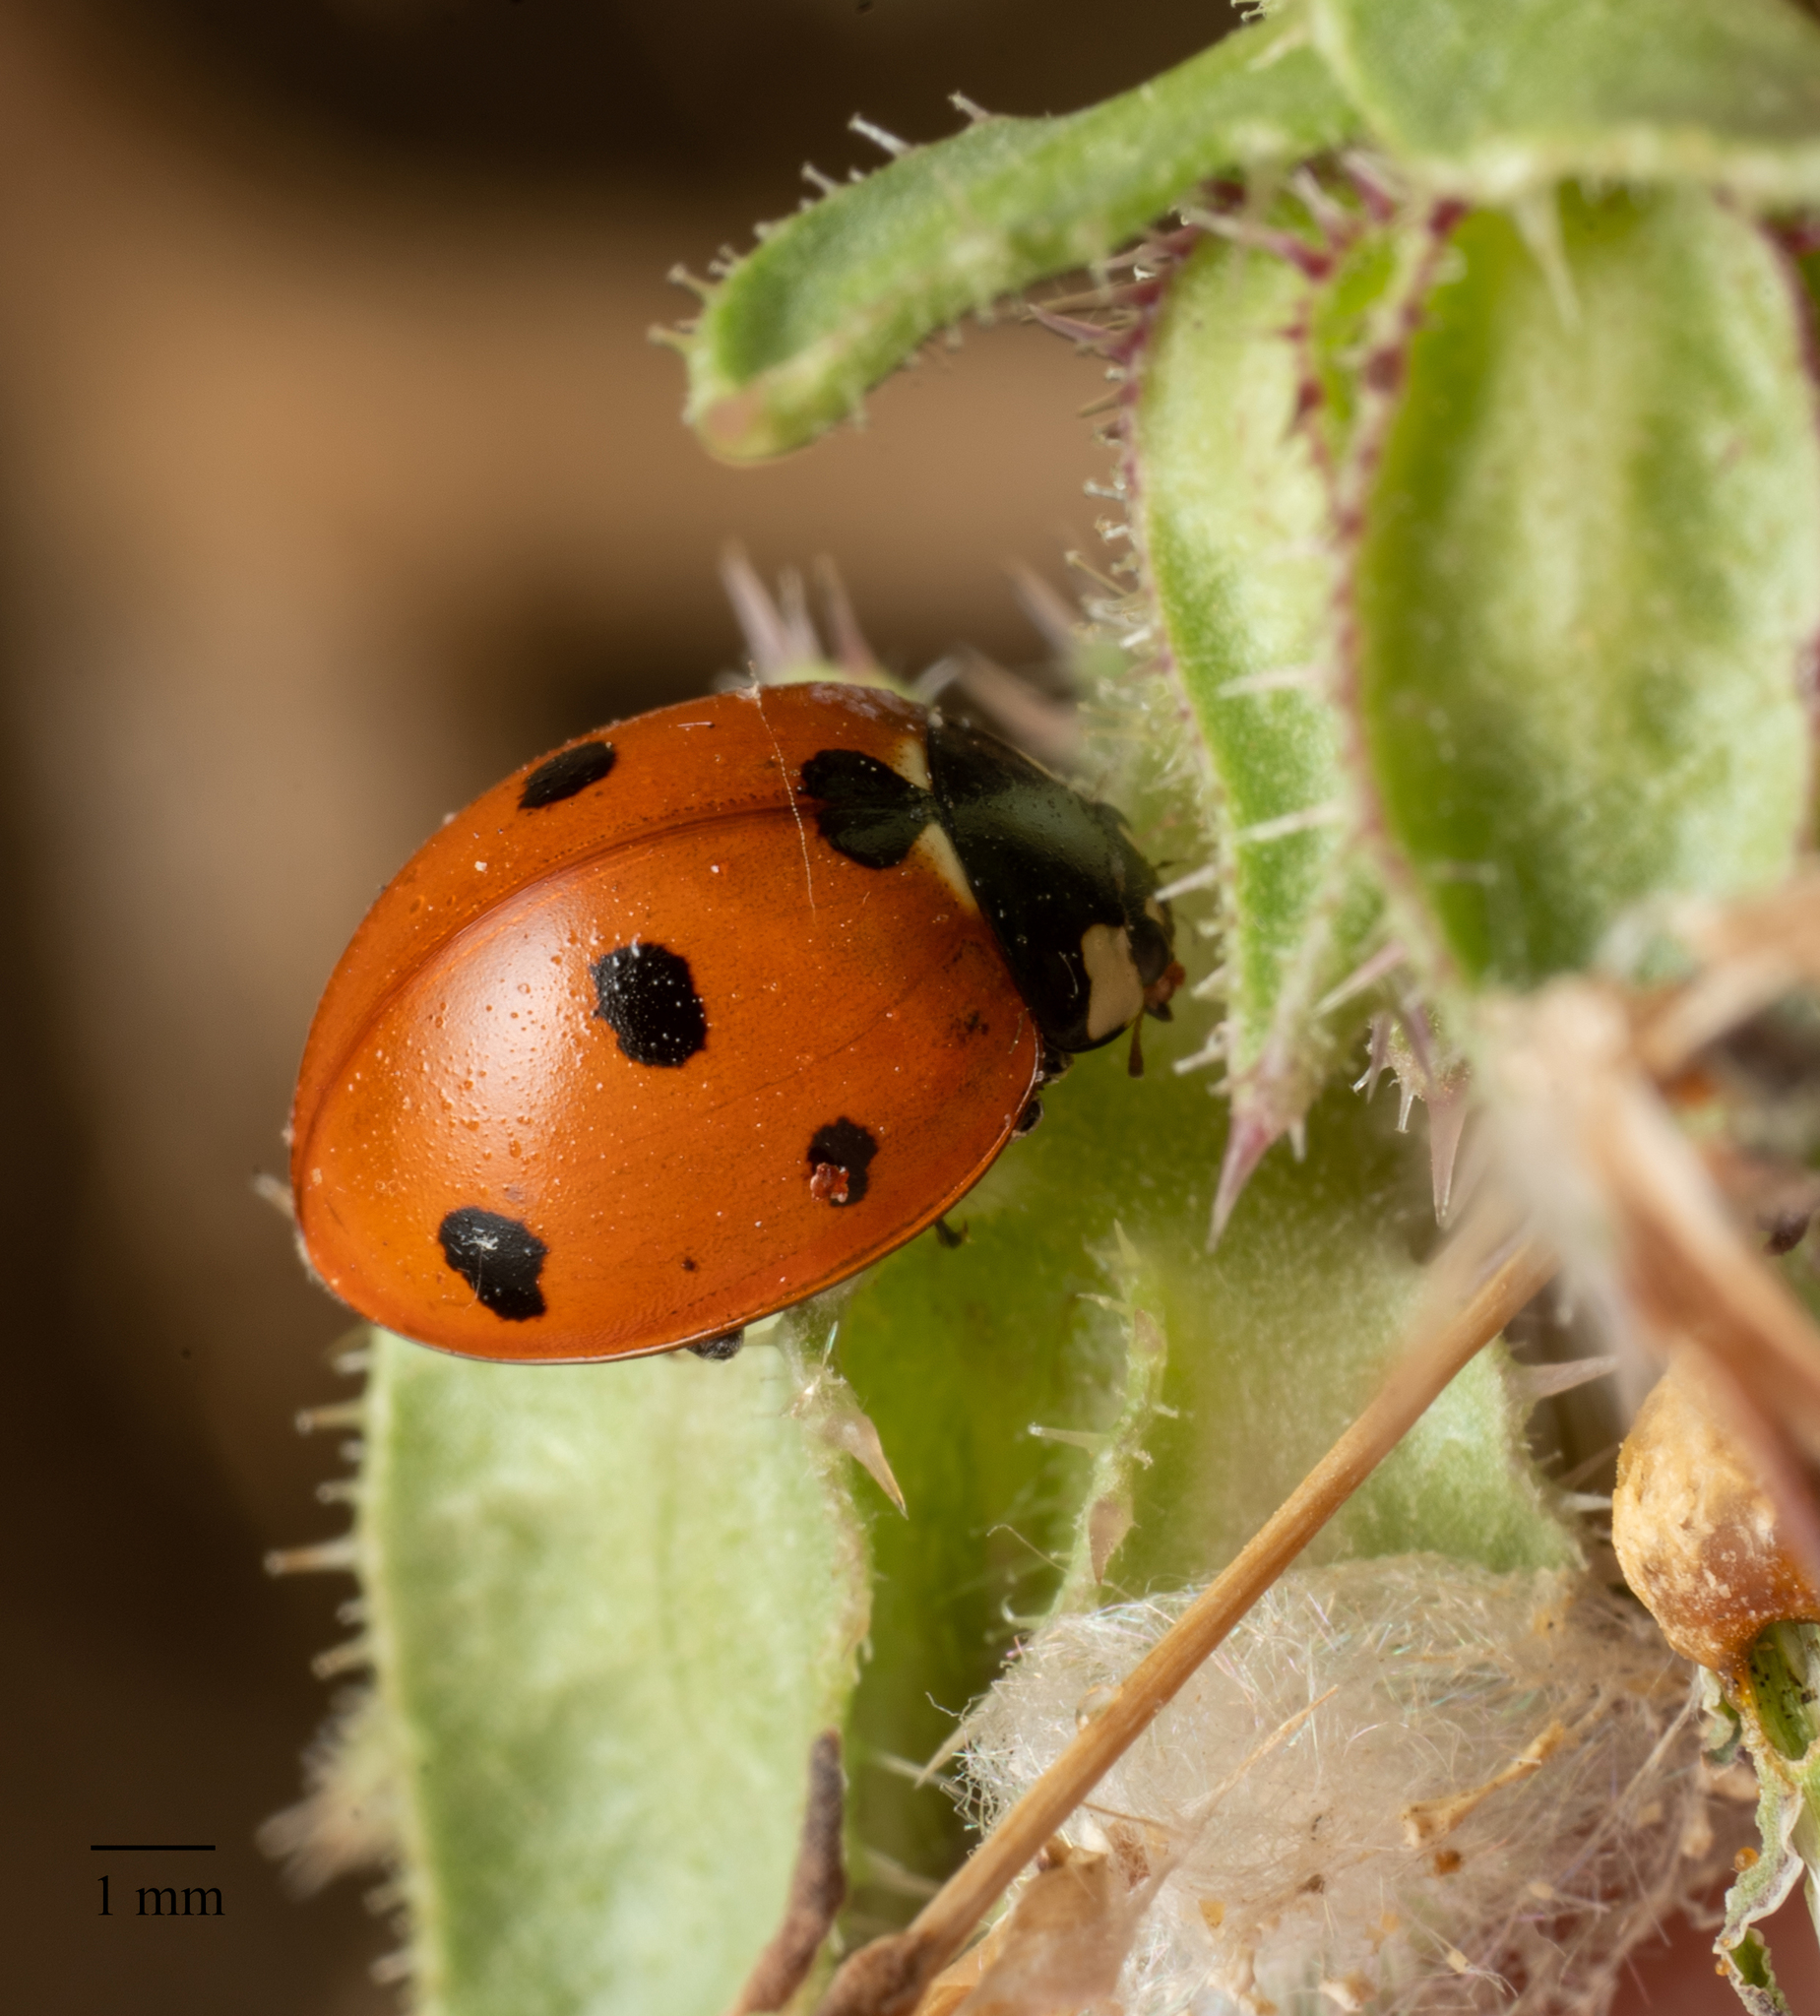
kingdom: Animalia
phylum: Arthropoda
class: Insecta
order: Coleoptera
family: Coccinellidae
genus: Coccinella
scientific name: Coccinella septempunctata
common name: Sevenspotted lady beetle
